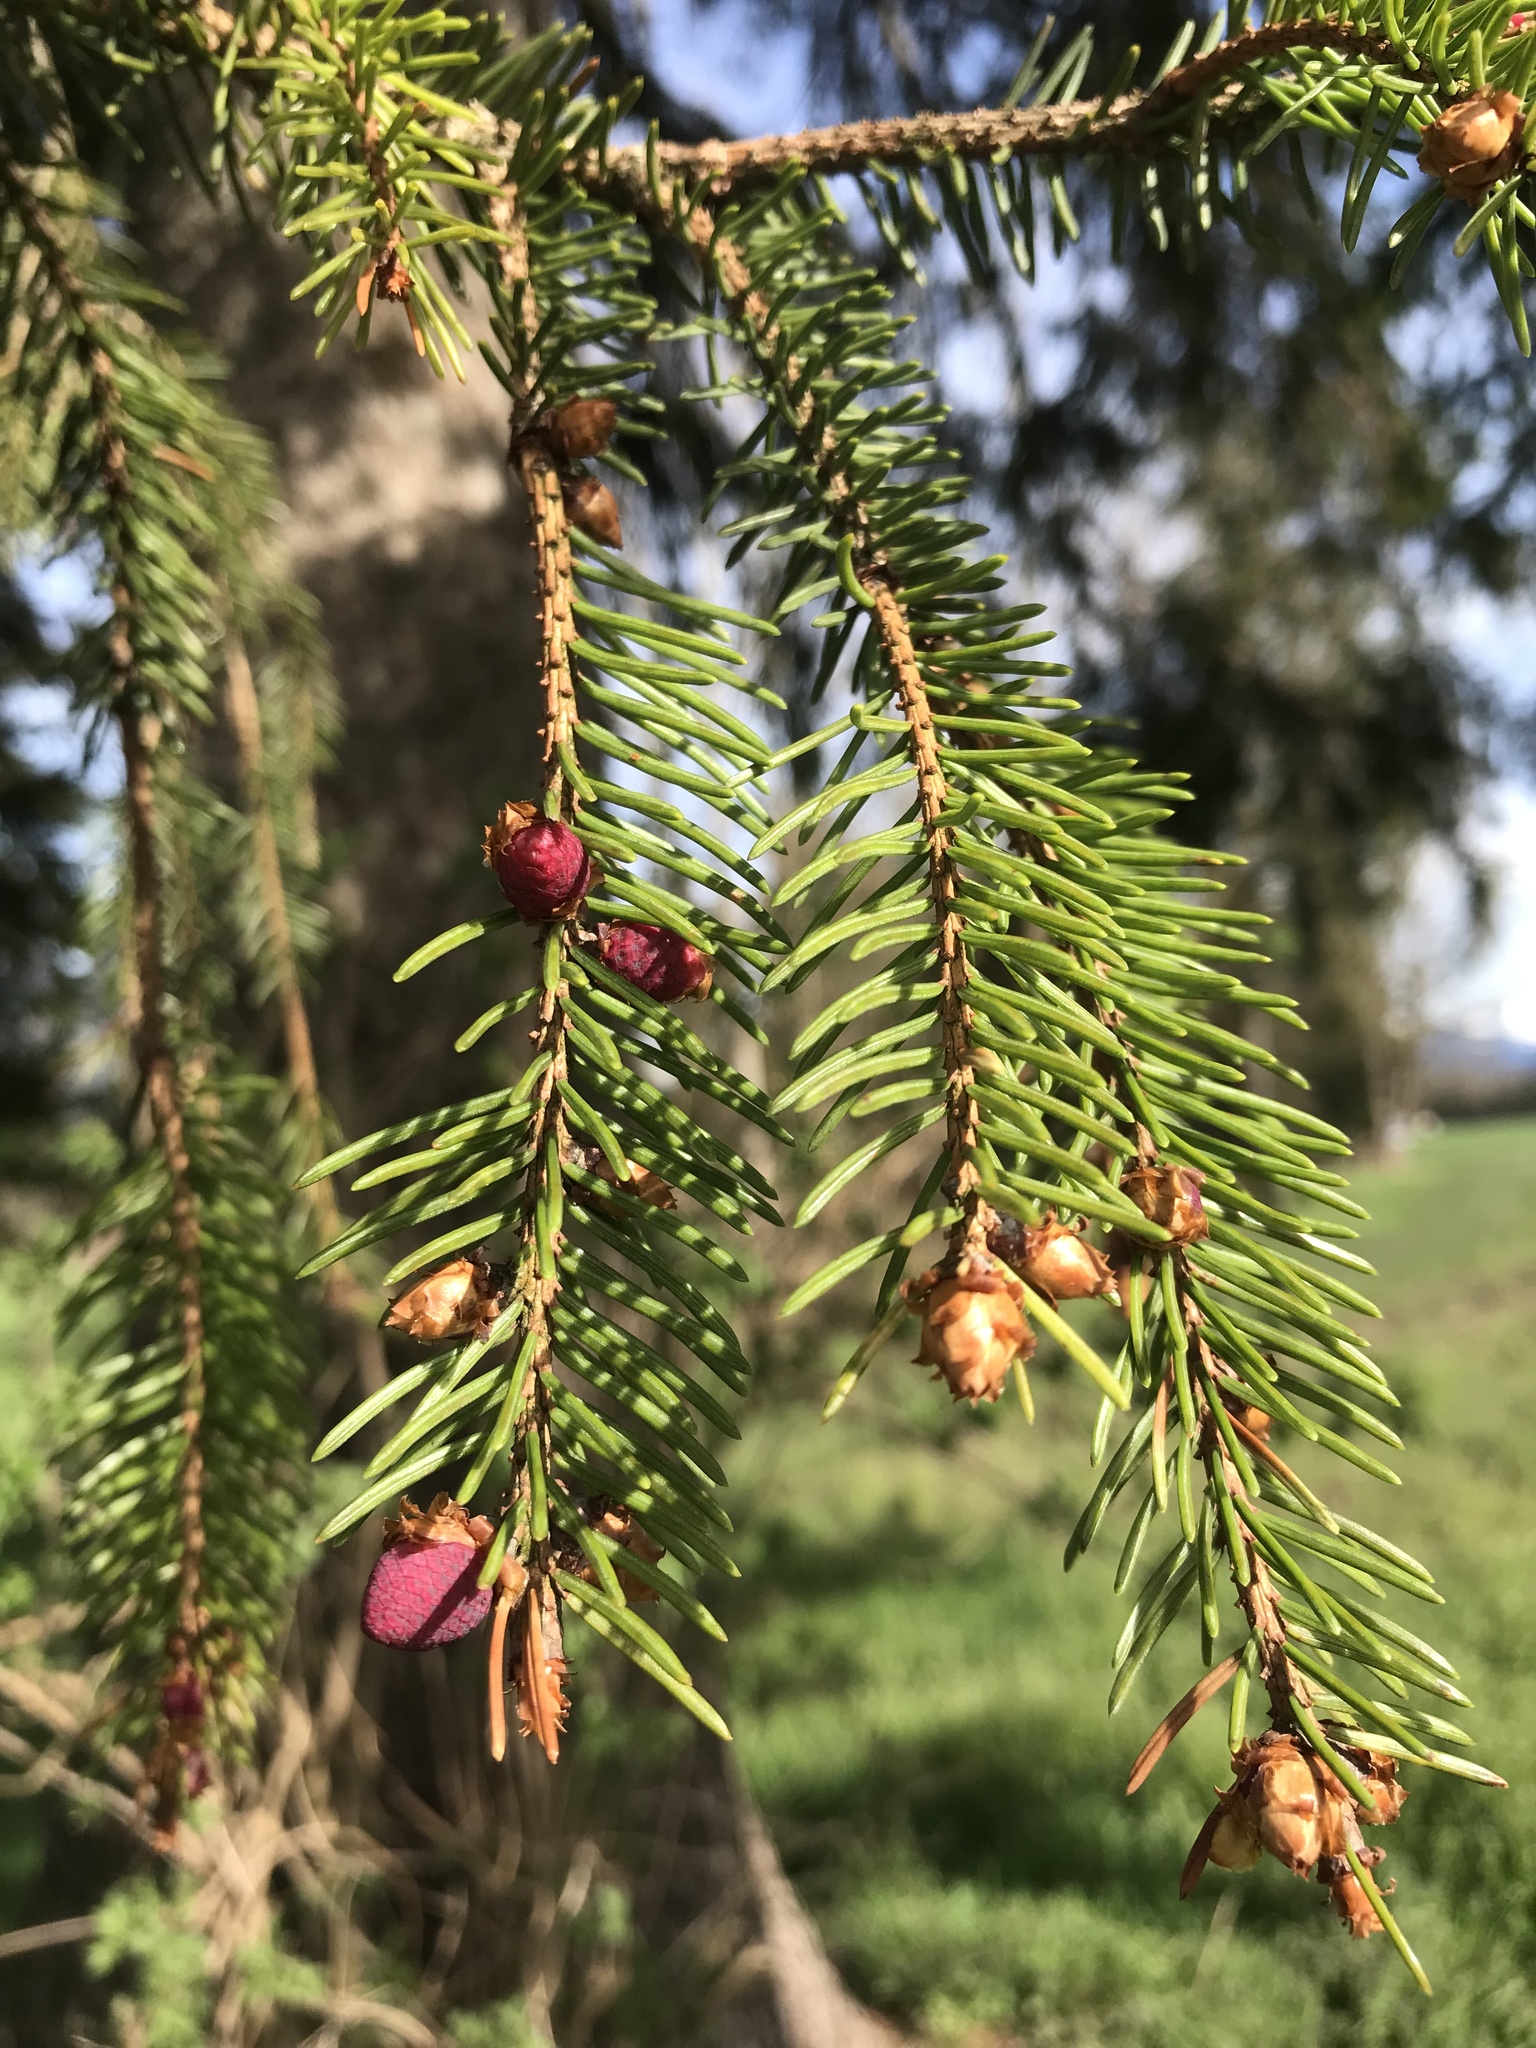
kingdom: Plantae
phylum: Tracheophyta
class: Pinopsida
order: Pinales
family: Pinaceae
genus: Picea
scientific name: Picea abies
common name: Norway spruce
